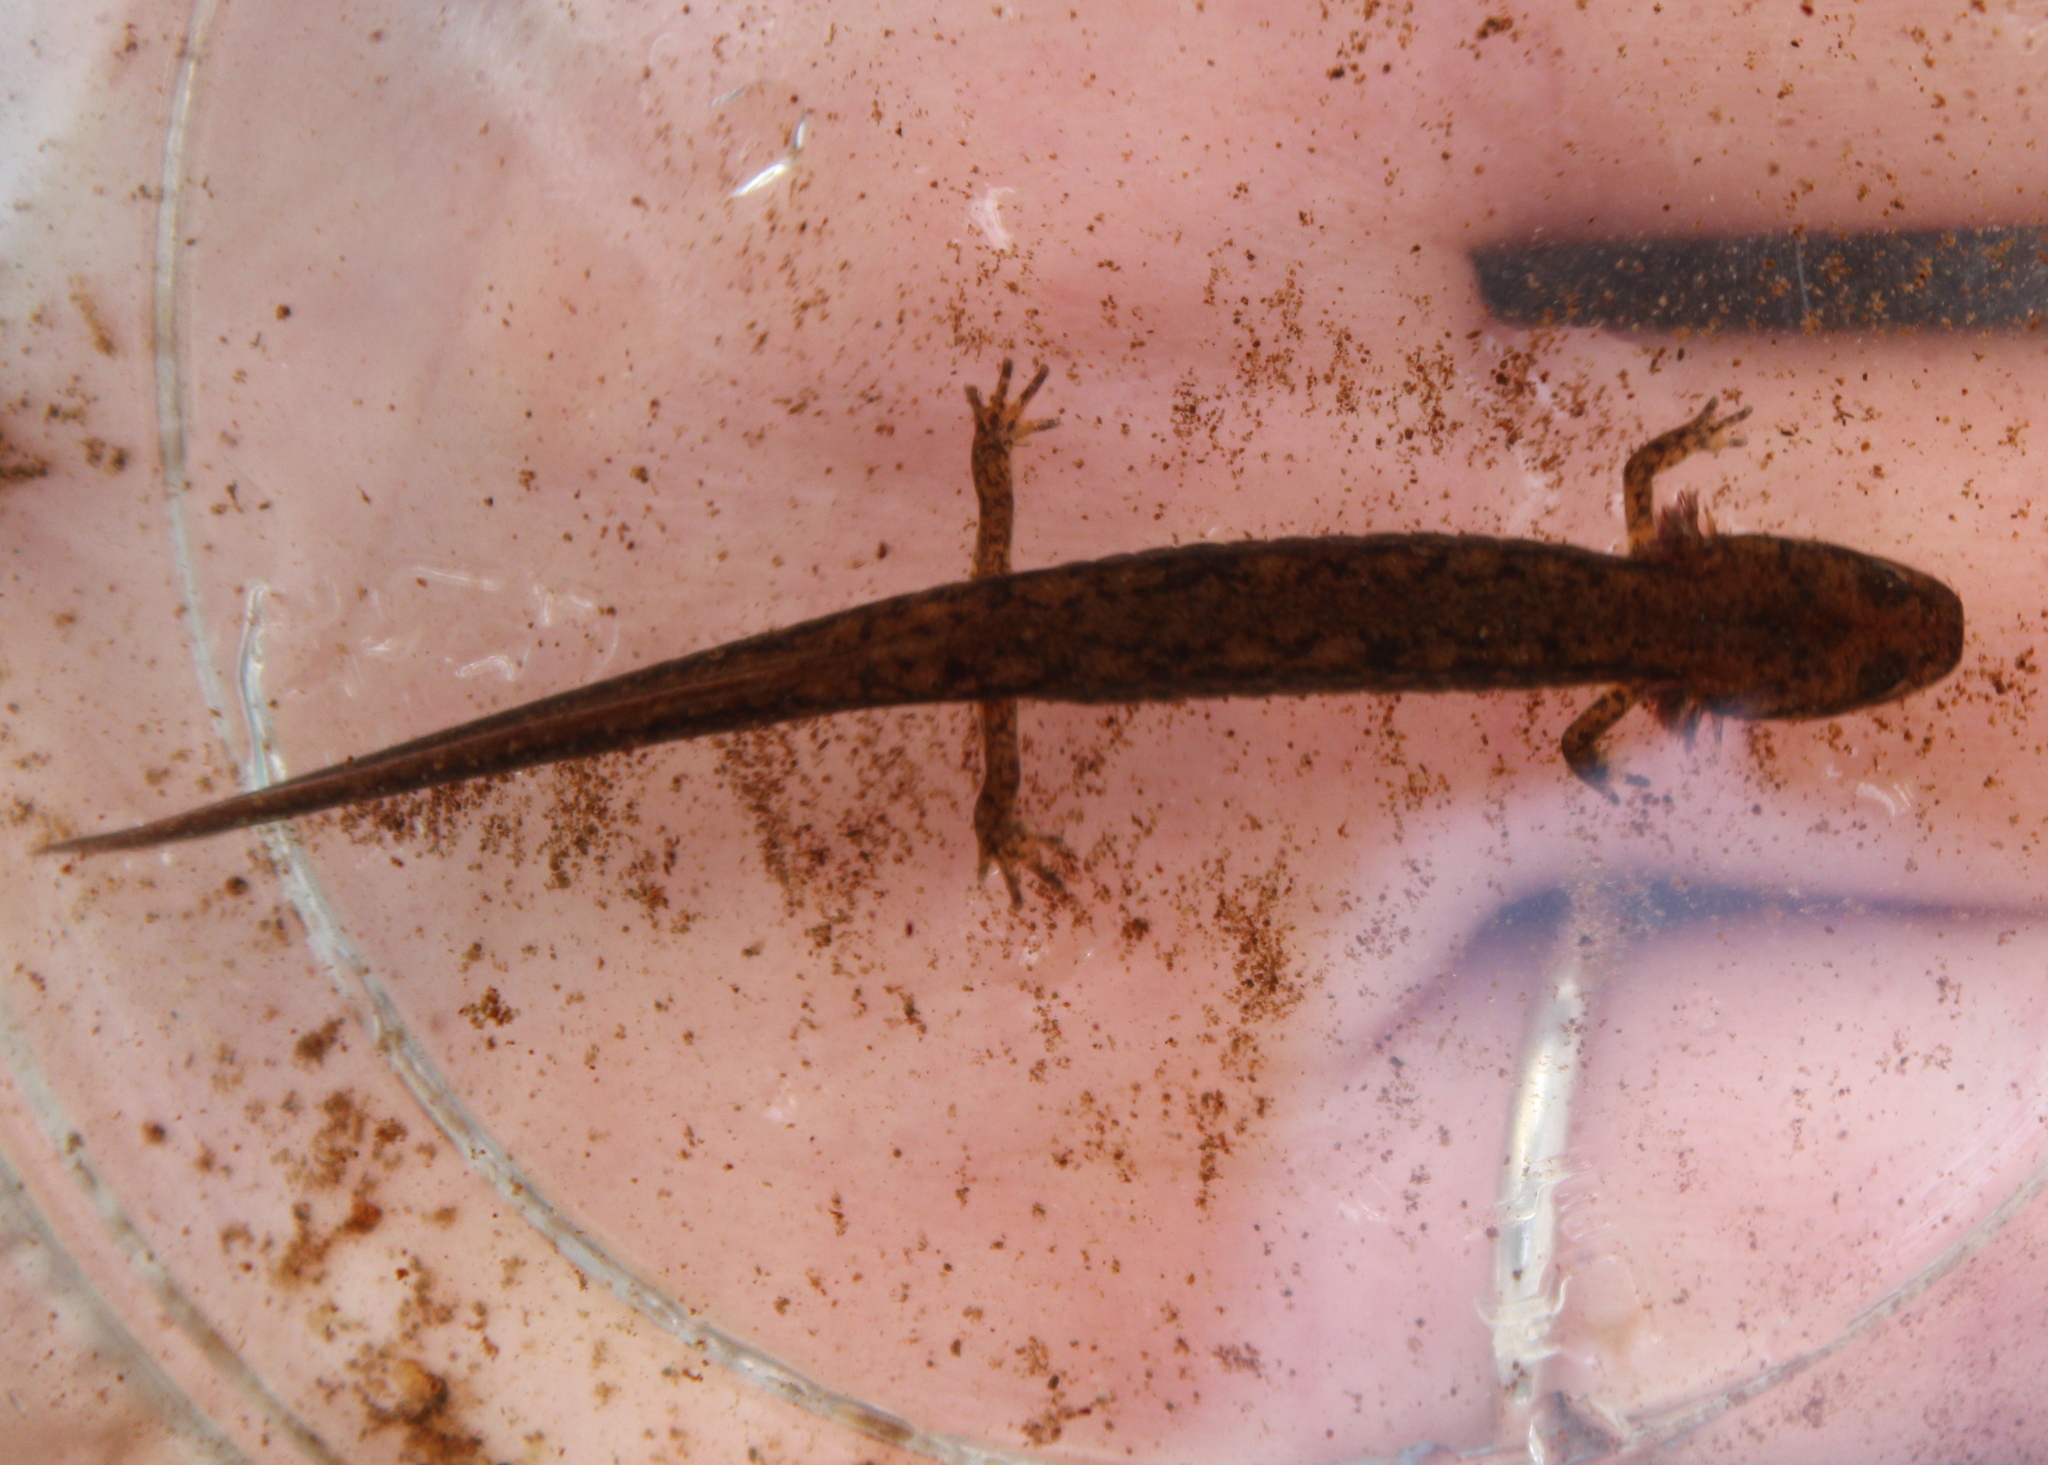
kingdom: Animalia
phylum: Chordata
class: Amphibia
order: Caudata
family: Plethodontidae
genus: Eurycea
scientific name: Eurycea bislineata
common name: Northern two-lined salamander
